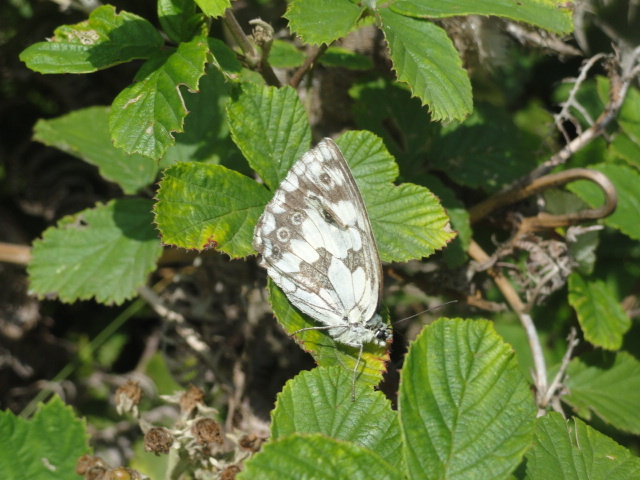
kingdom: Animalia
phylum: Arthropoda
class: Insecta
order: Lepidoptera
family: Nymphalidae
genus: Melanargia
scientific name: Melanargia galathea
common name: Marbled white
